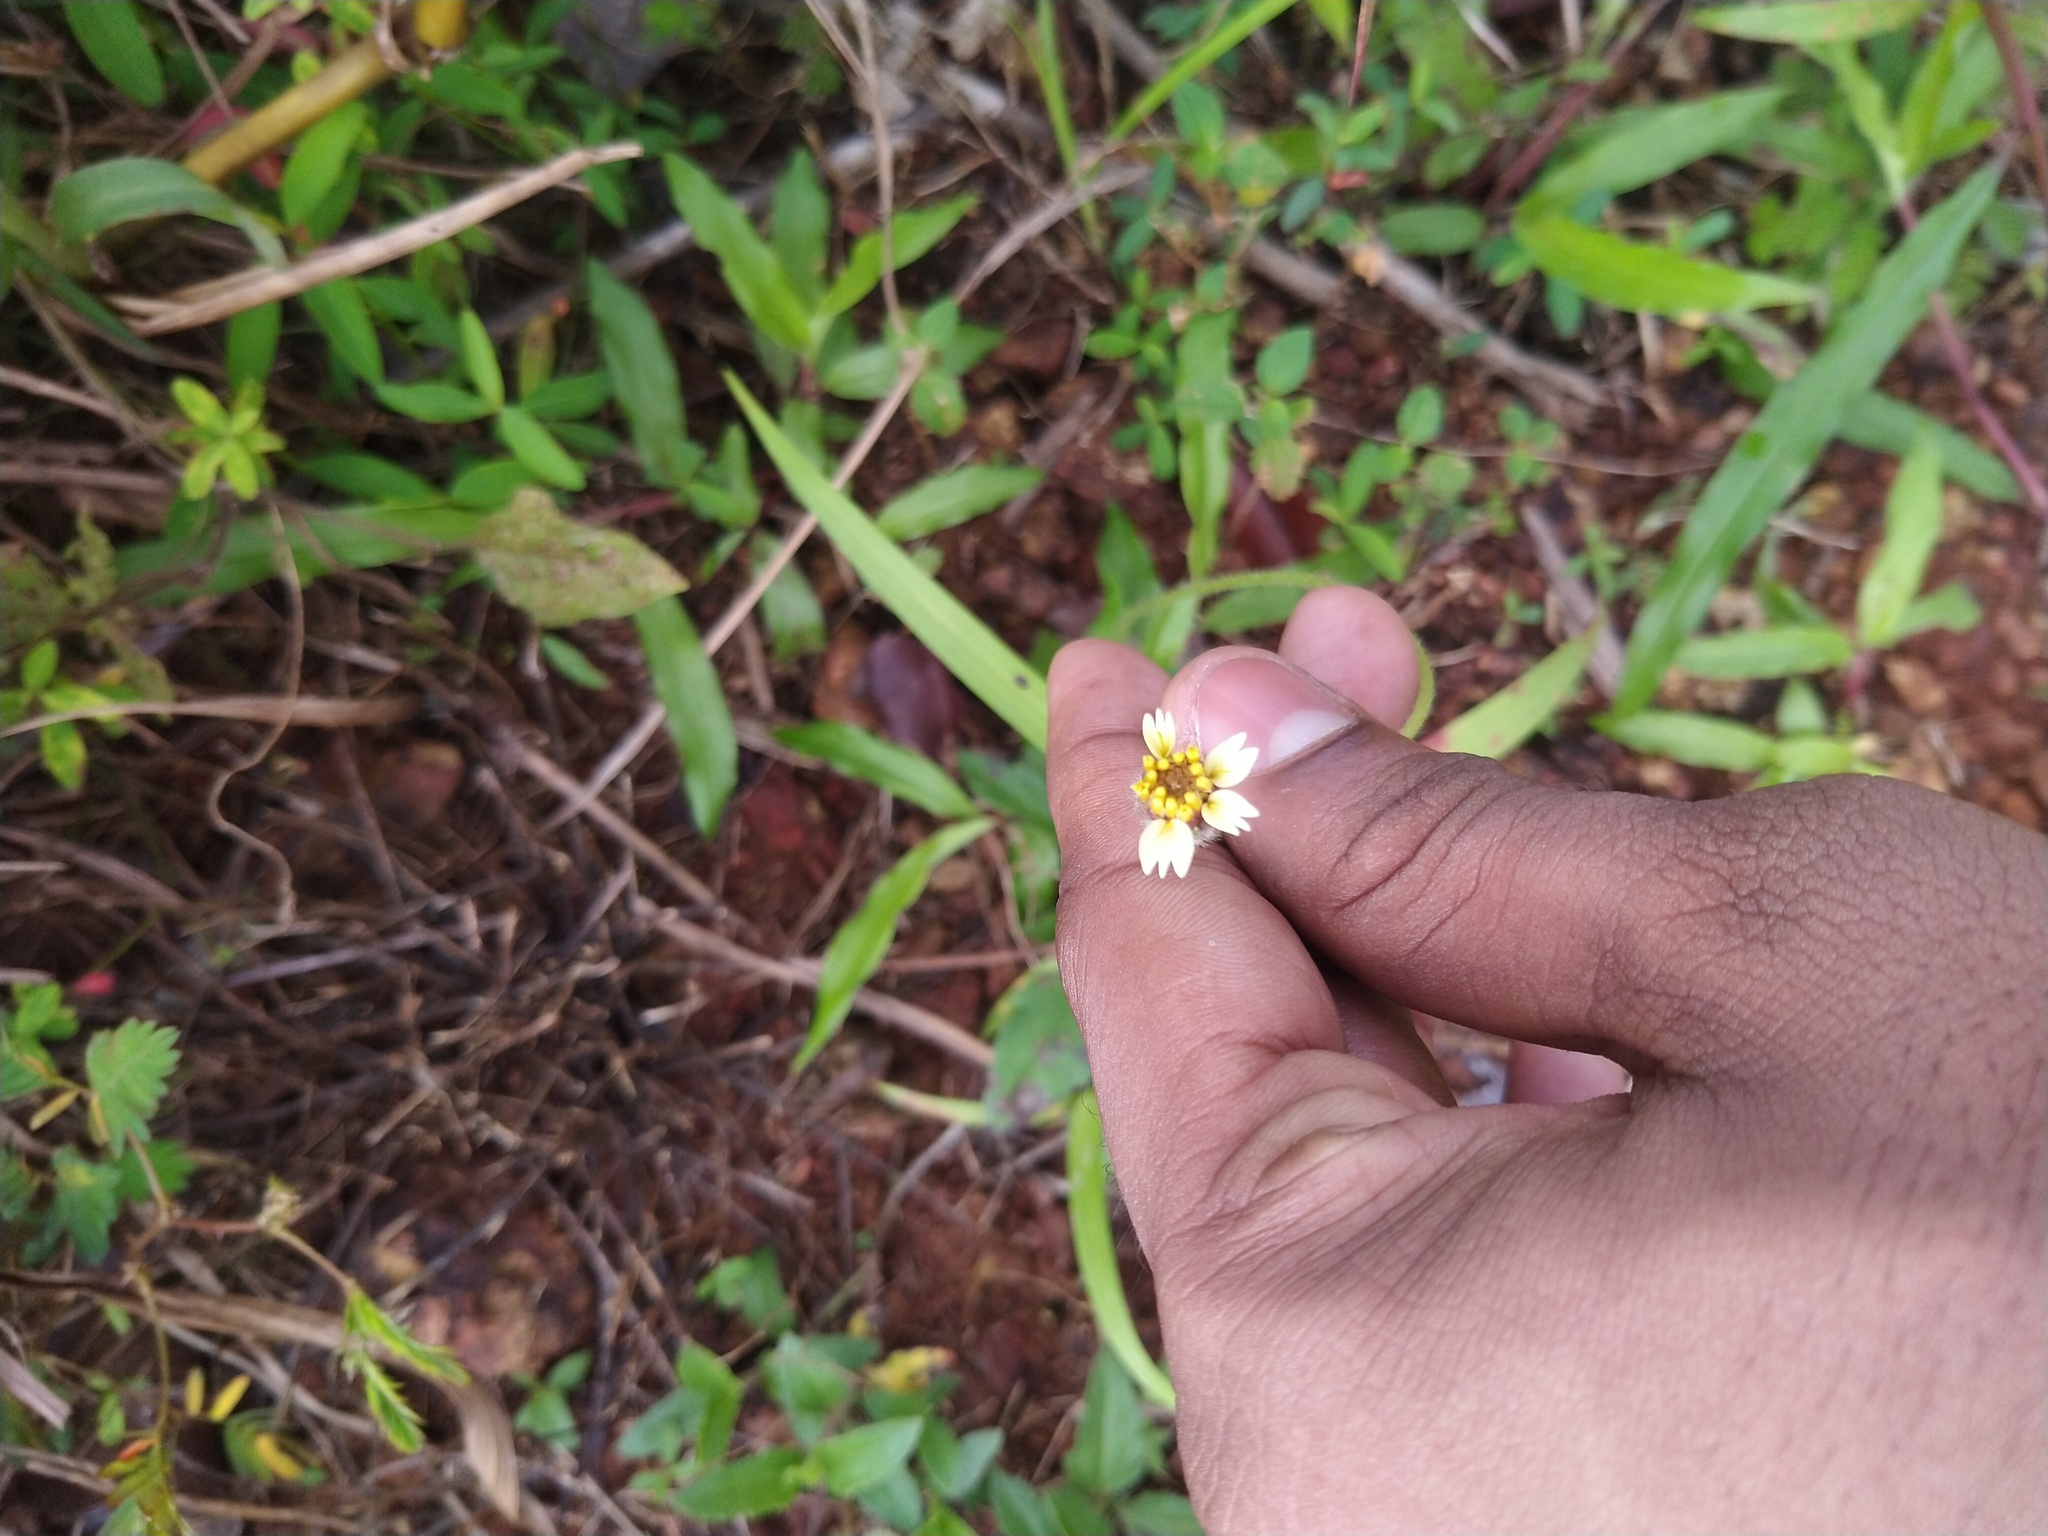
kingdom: Plantae
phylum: Tracheophyta
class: Magnoliopsida
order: Asterales
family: Asteraceae
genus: Tridax
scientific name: Tridax procumbens
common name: Coatbuttons
